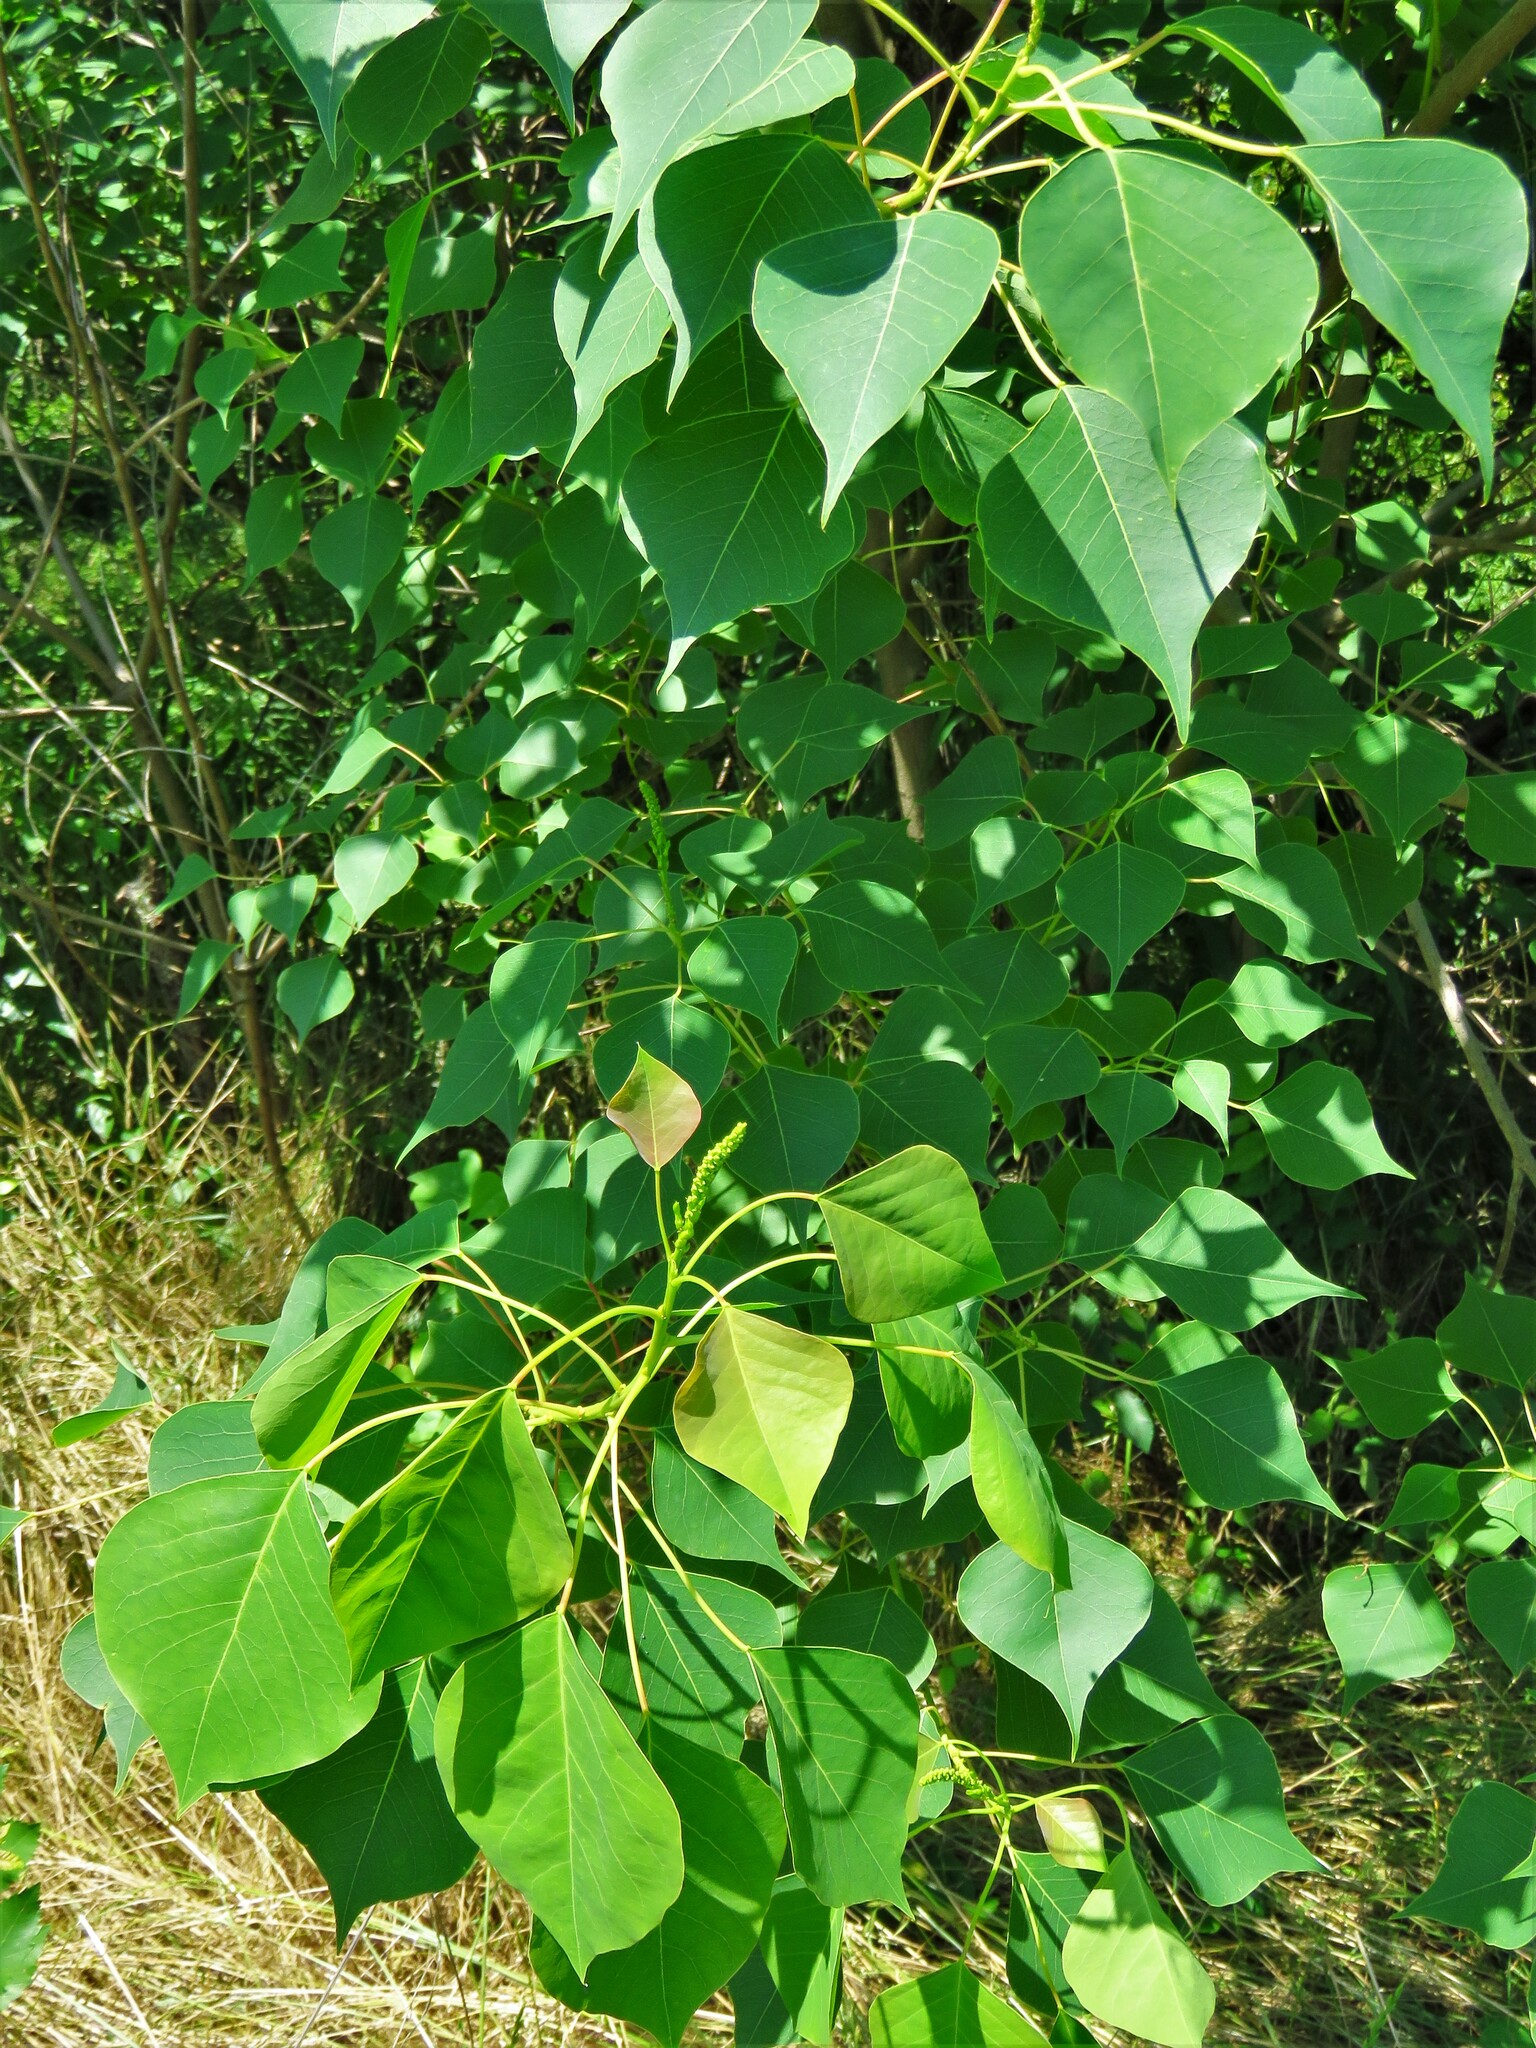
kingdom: Plantae
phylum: Tracheophyta
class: Magnoliopsida
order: Malpighiales
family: Euphorbiaceae
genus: Triadica
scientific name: Triadica sebifera
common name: Chinese tallow
